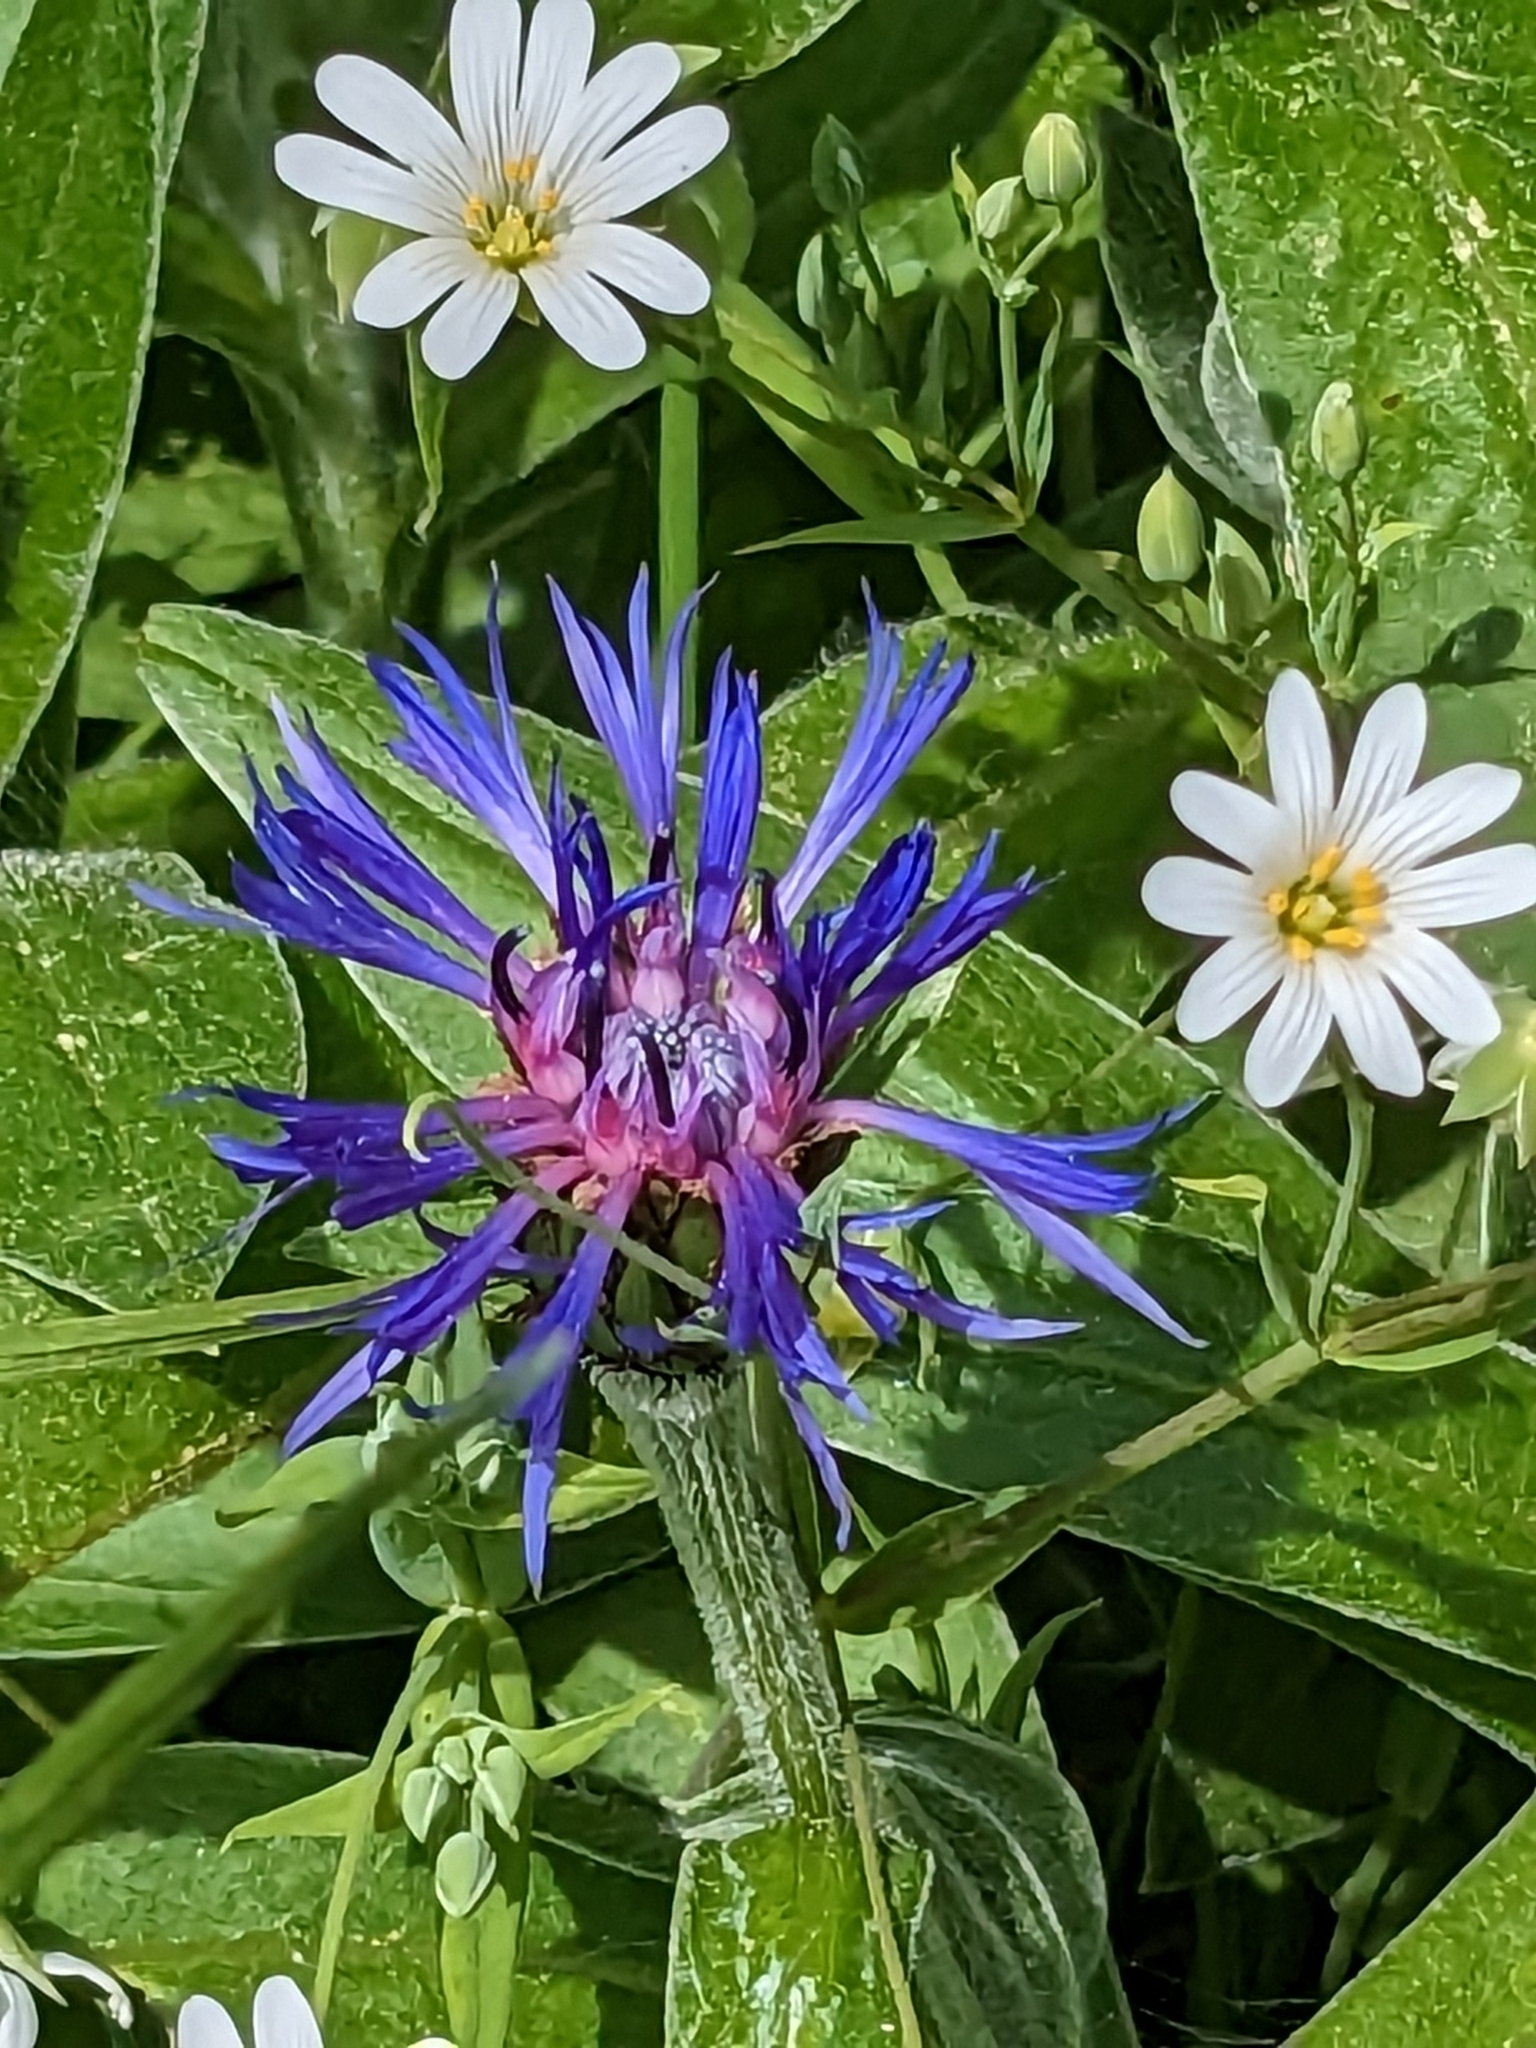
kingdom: Plantae
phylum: Tracheophyta
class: Magnoliopsida
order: Asterales
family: Asteraceae
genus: Centaurea
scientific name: Centaurea montana
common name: Perennial cornflower
